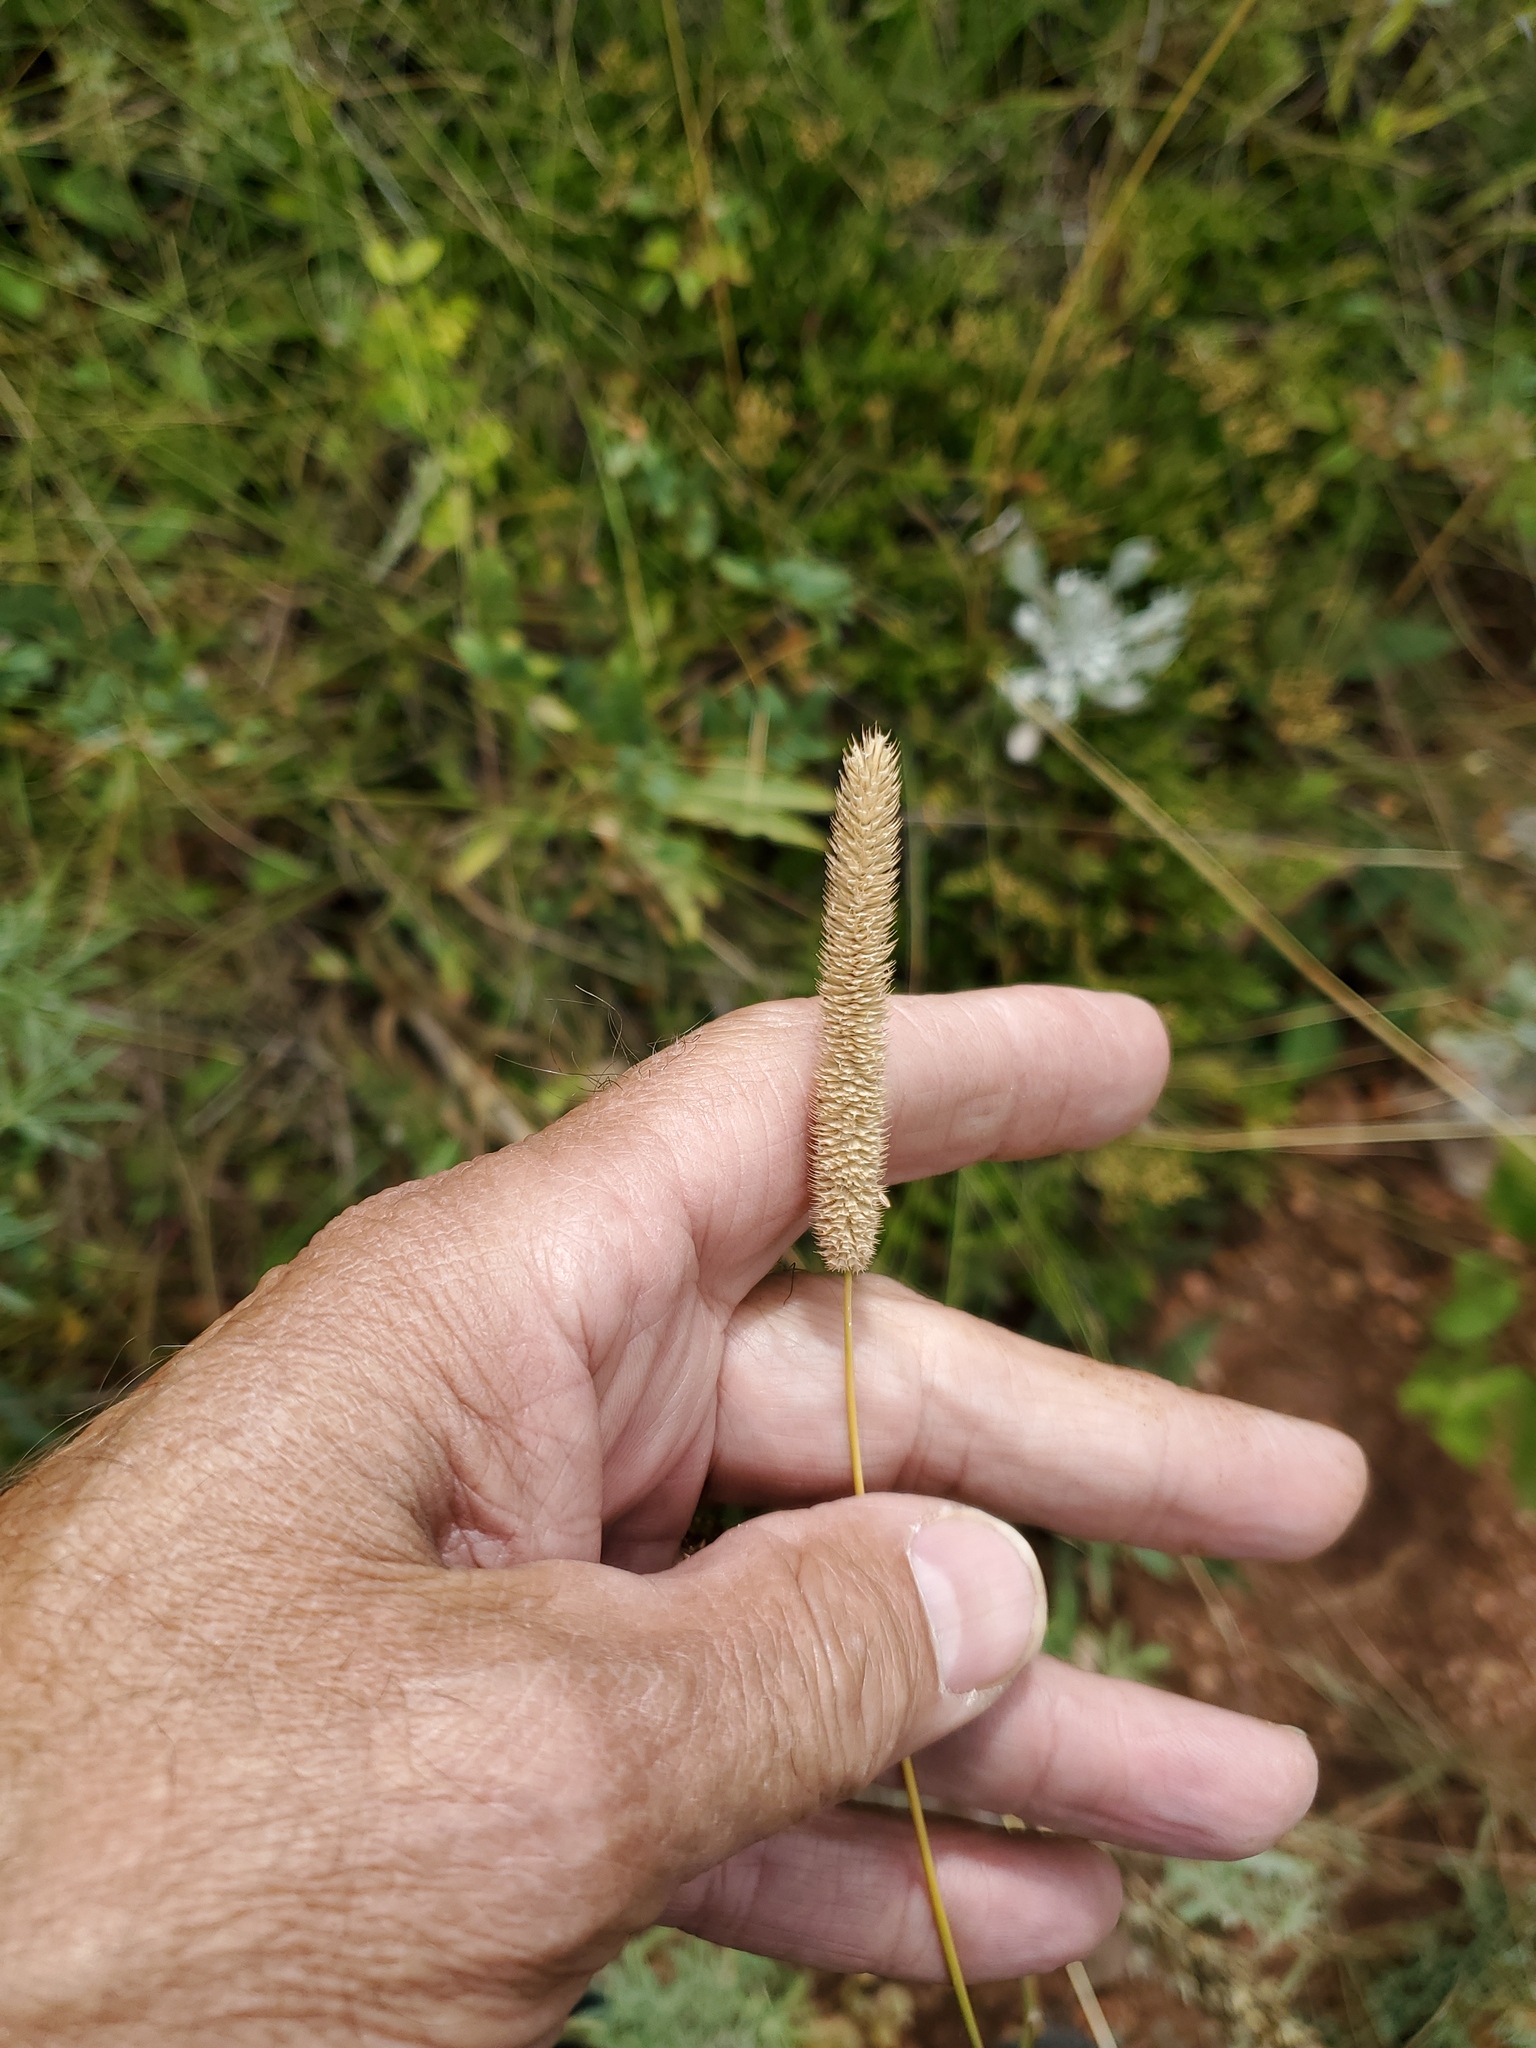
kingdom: Plantae
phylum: Tracheophyta
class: Liliopsida
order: Poales
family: Poaceae
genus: Phleum
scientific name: Phleum pratense
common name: Timothy grass
